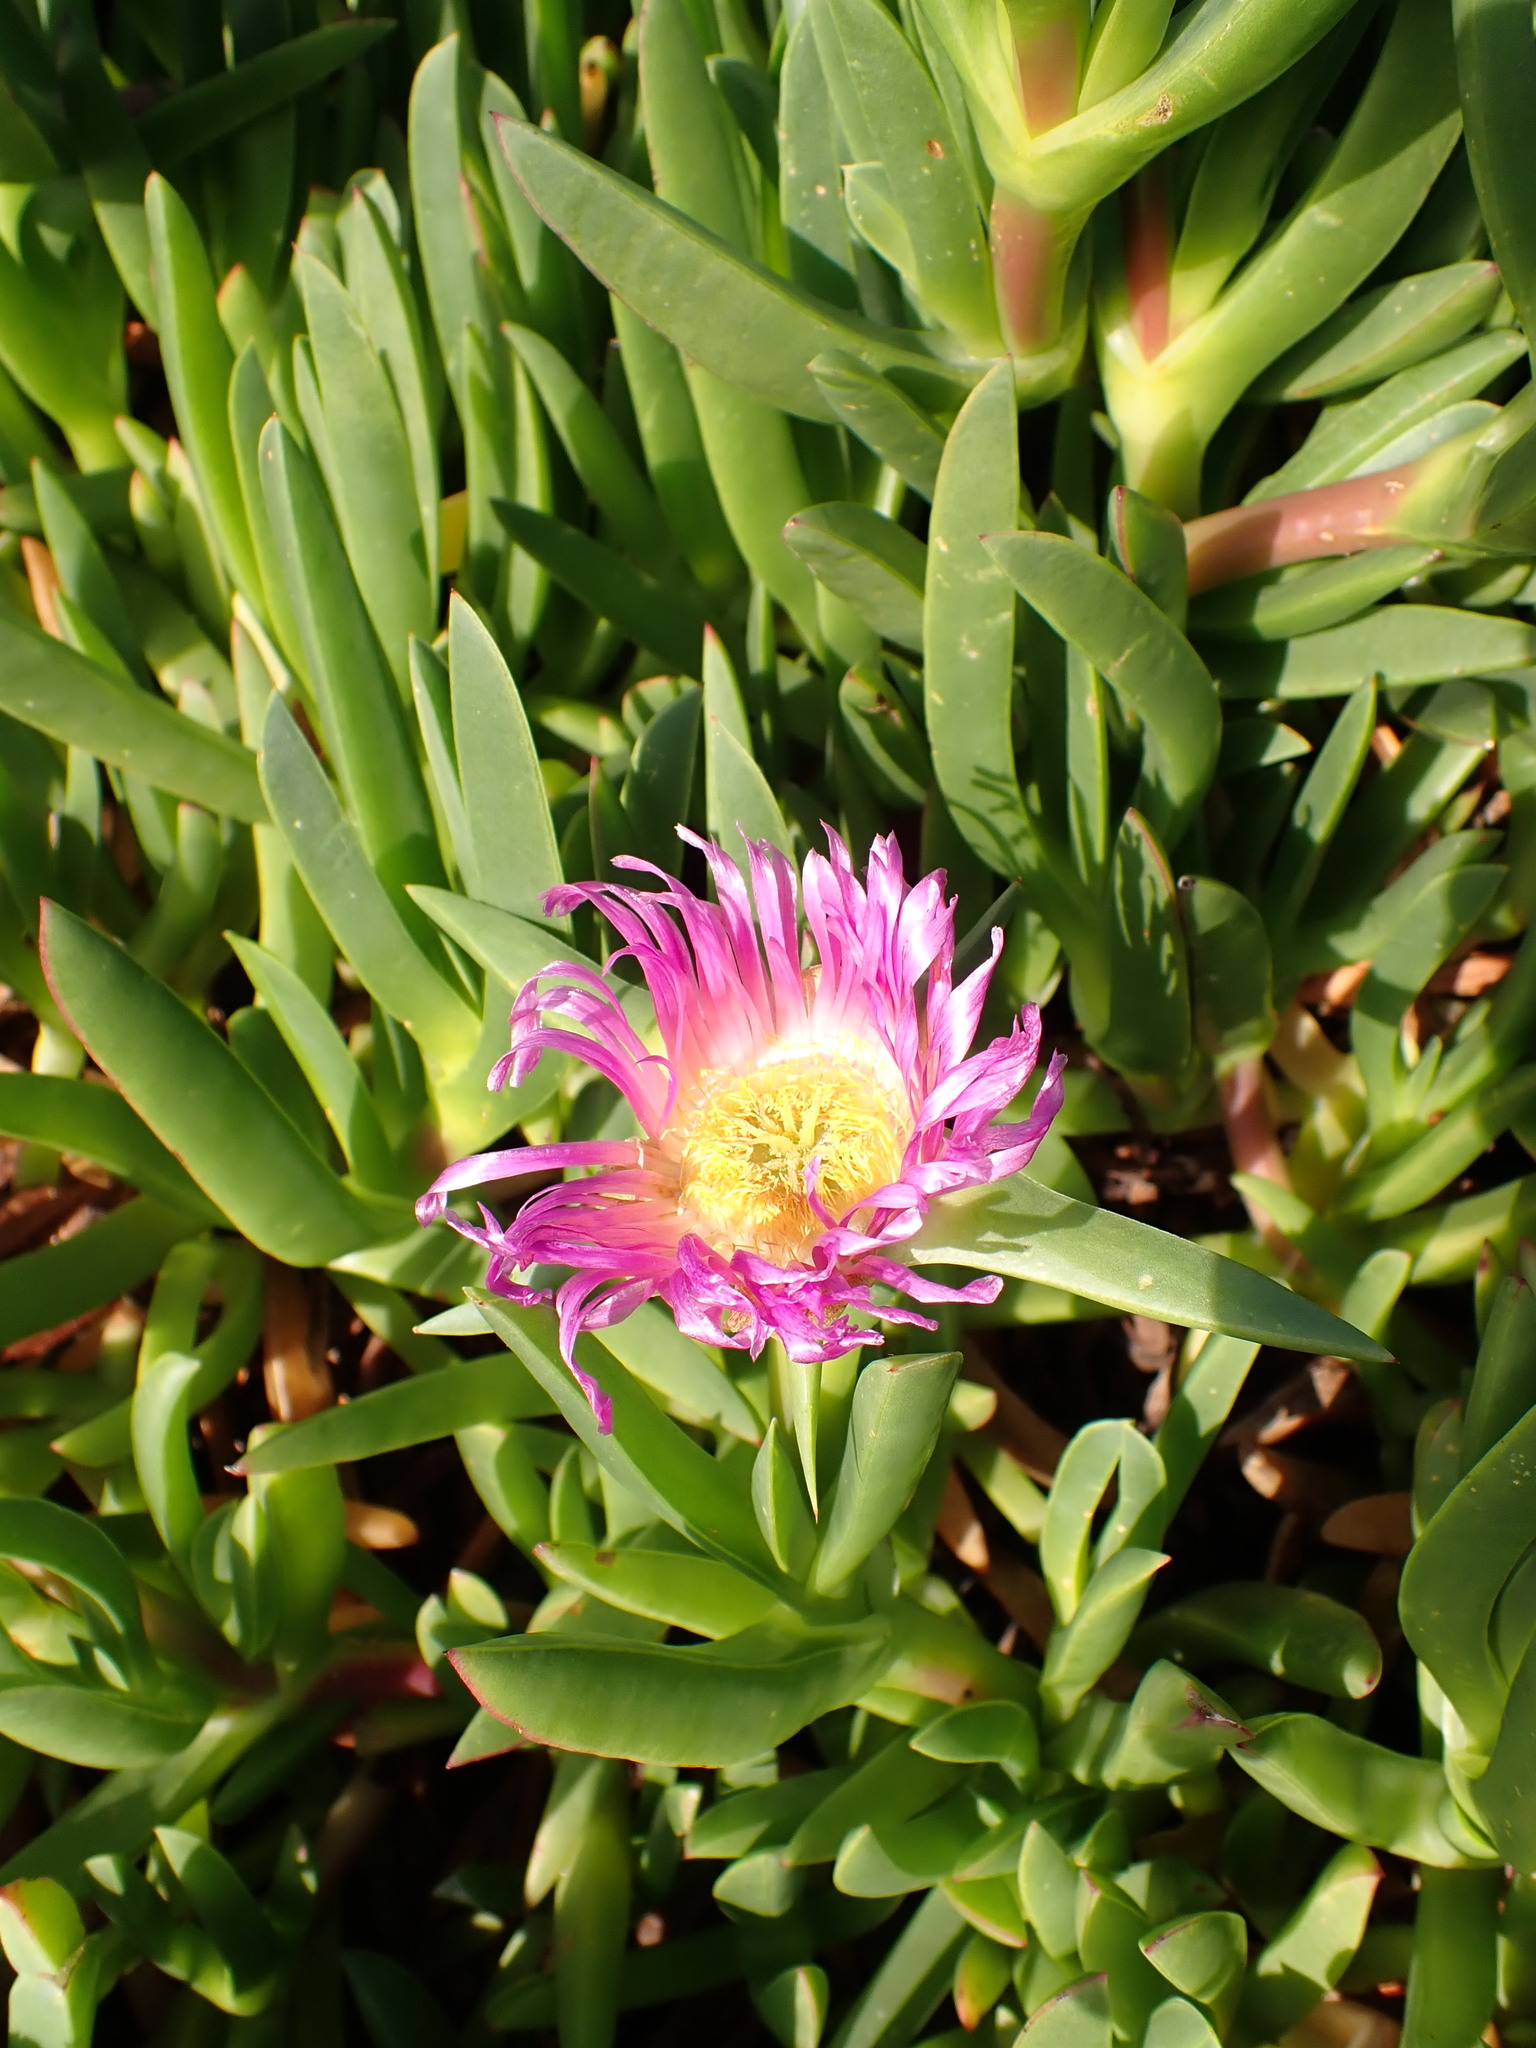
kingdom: Plantae
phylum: Tracheophyta
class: Magnoliopsida
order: Caryophyllales
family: Aizoaceae
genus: Carpobrotus
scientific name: Carpobrotus edulis
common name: Hottentot-fig
